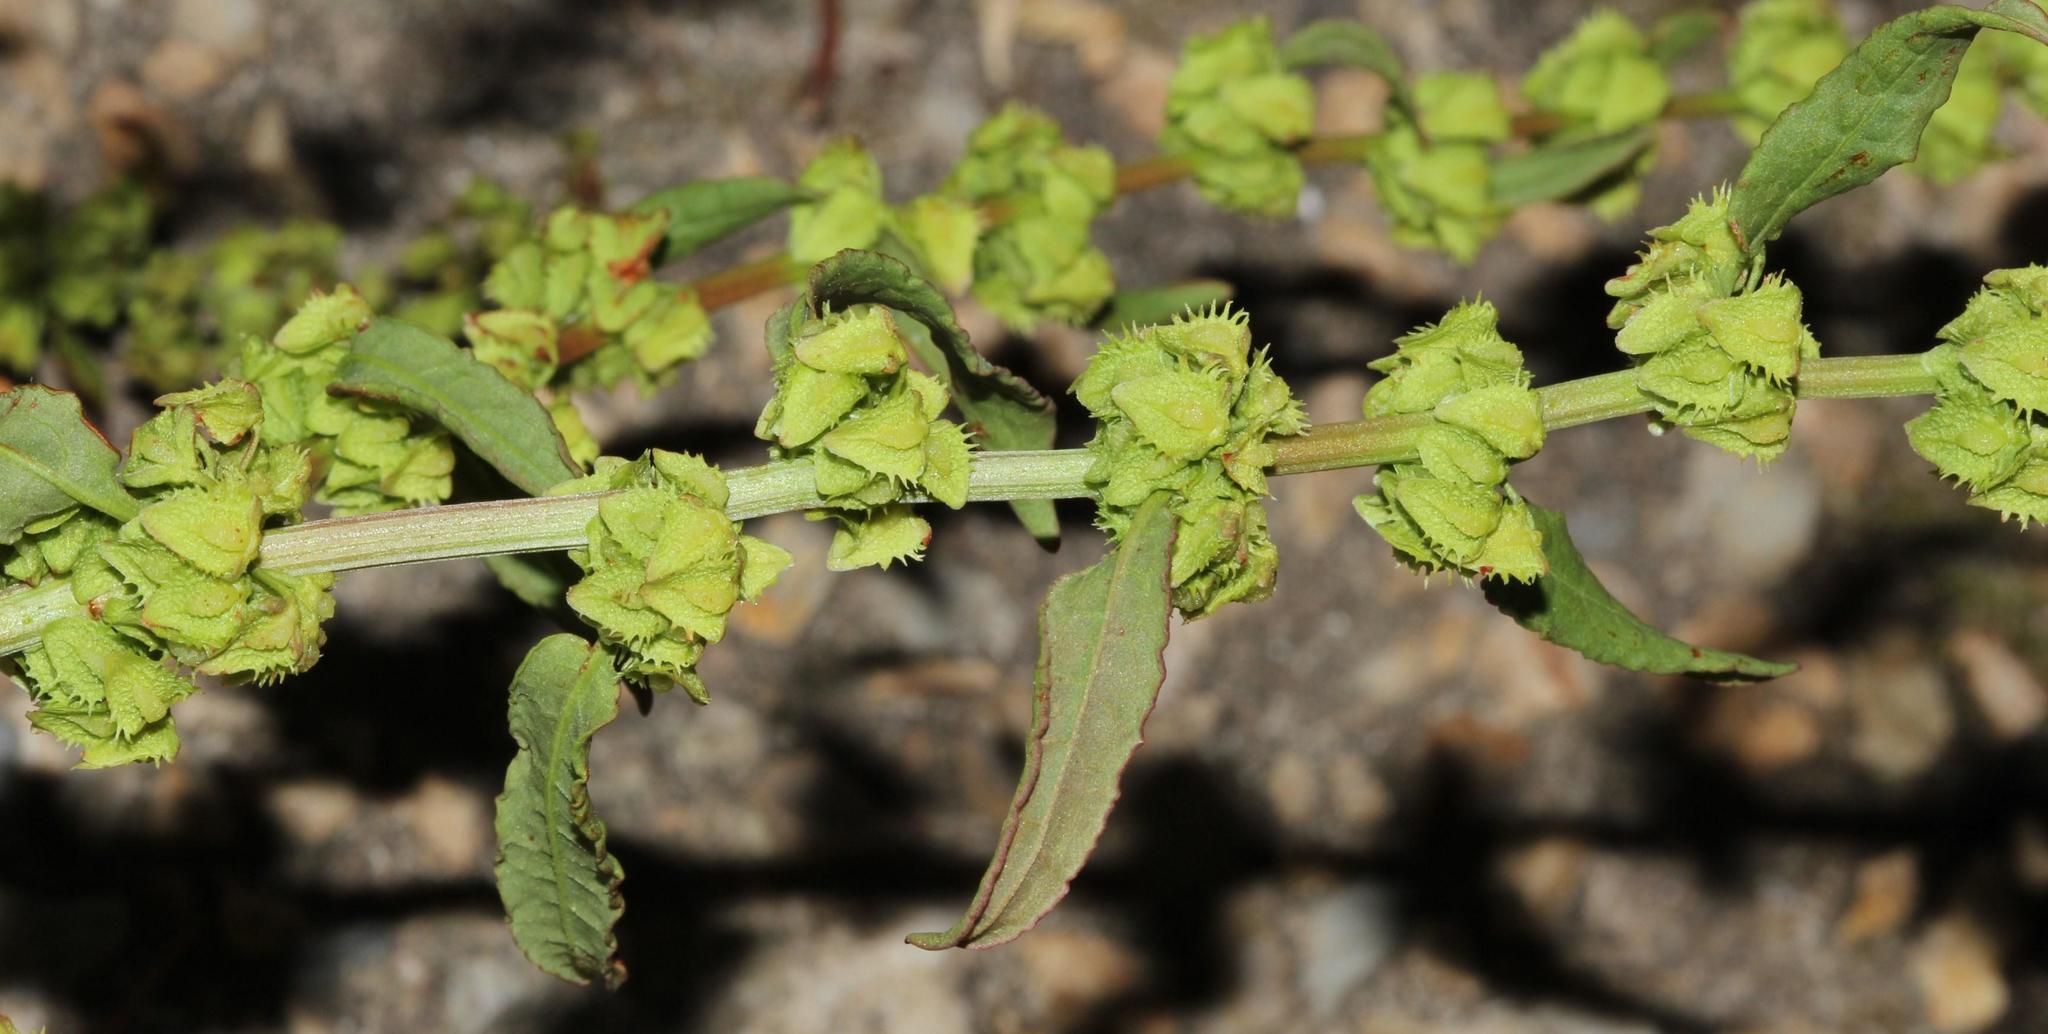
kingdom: Plantae
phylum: Tracheophyta
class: Magnoliopsida
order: Caryophyllales
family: Polygonaceae
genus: Rumex
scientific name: Rumex obtusifolius
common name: Bitter dock
